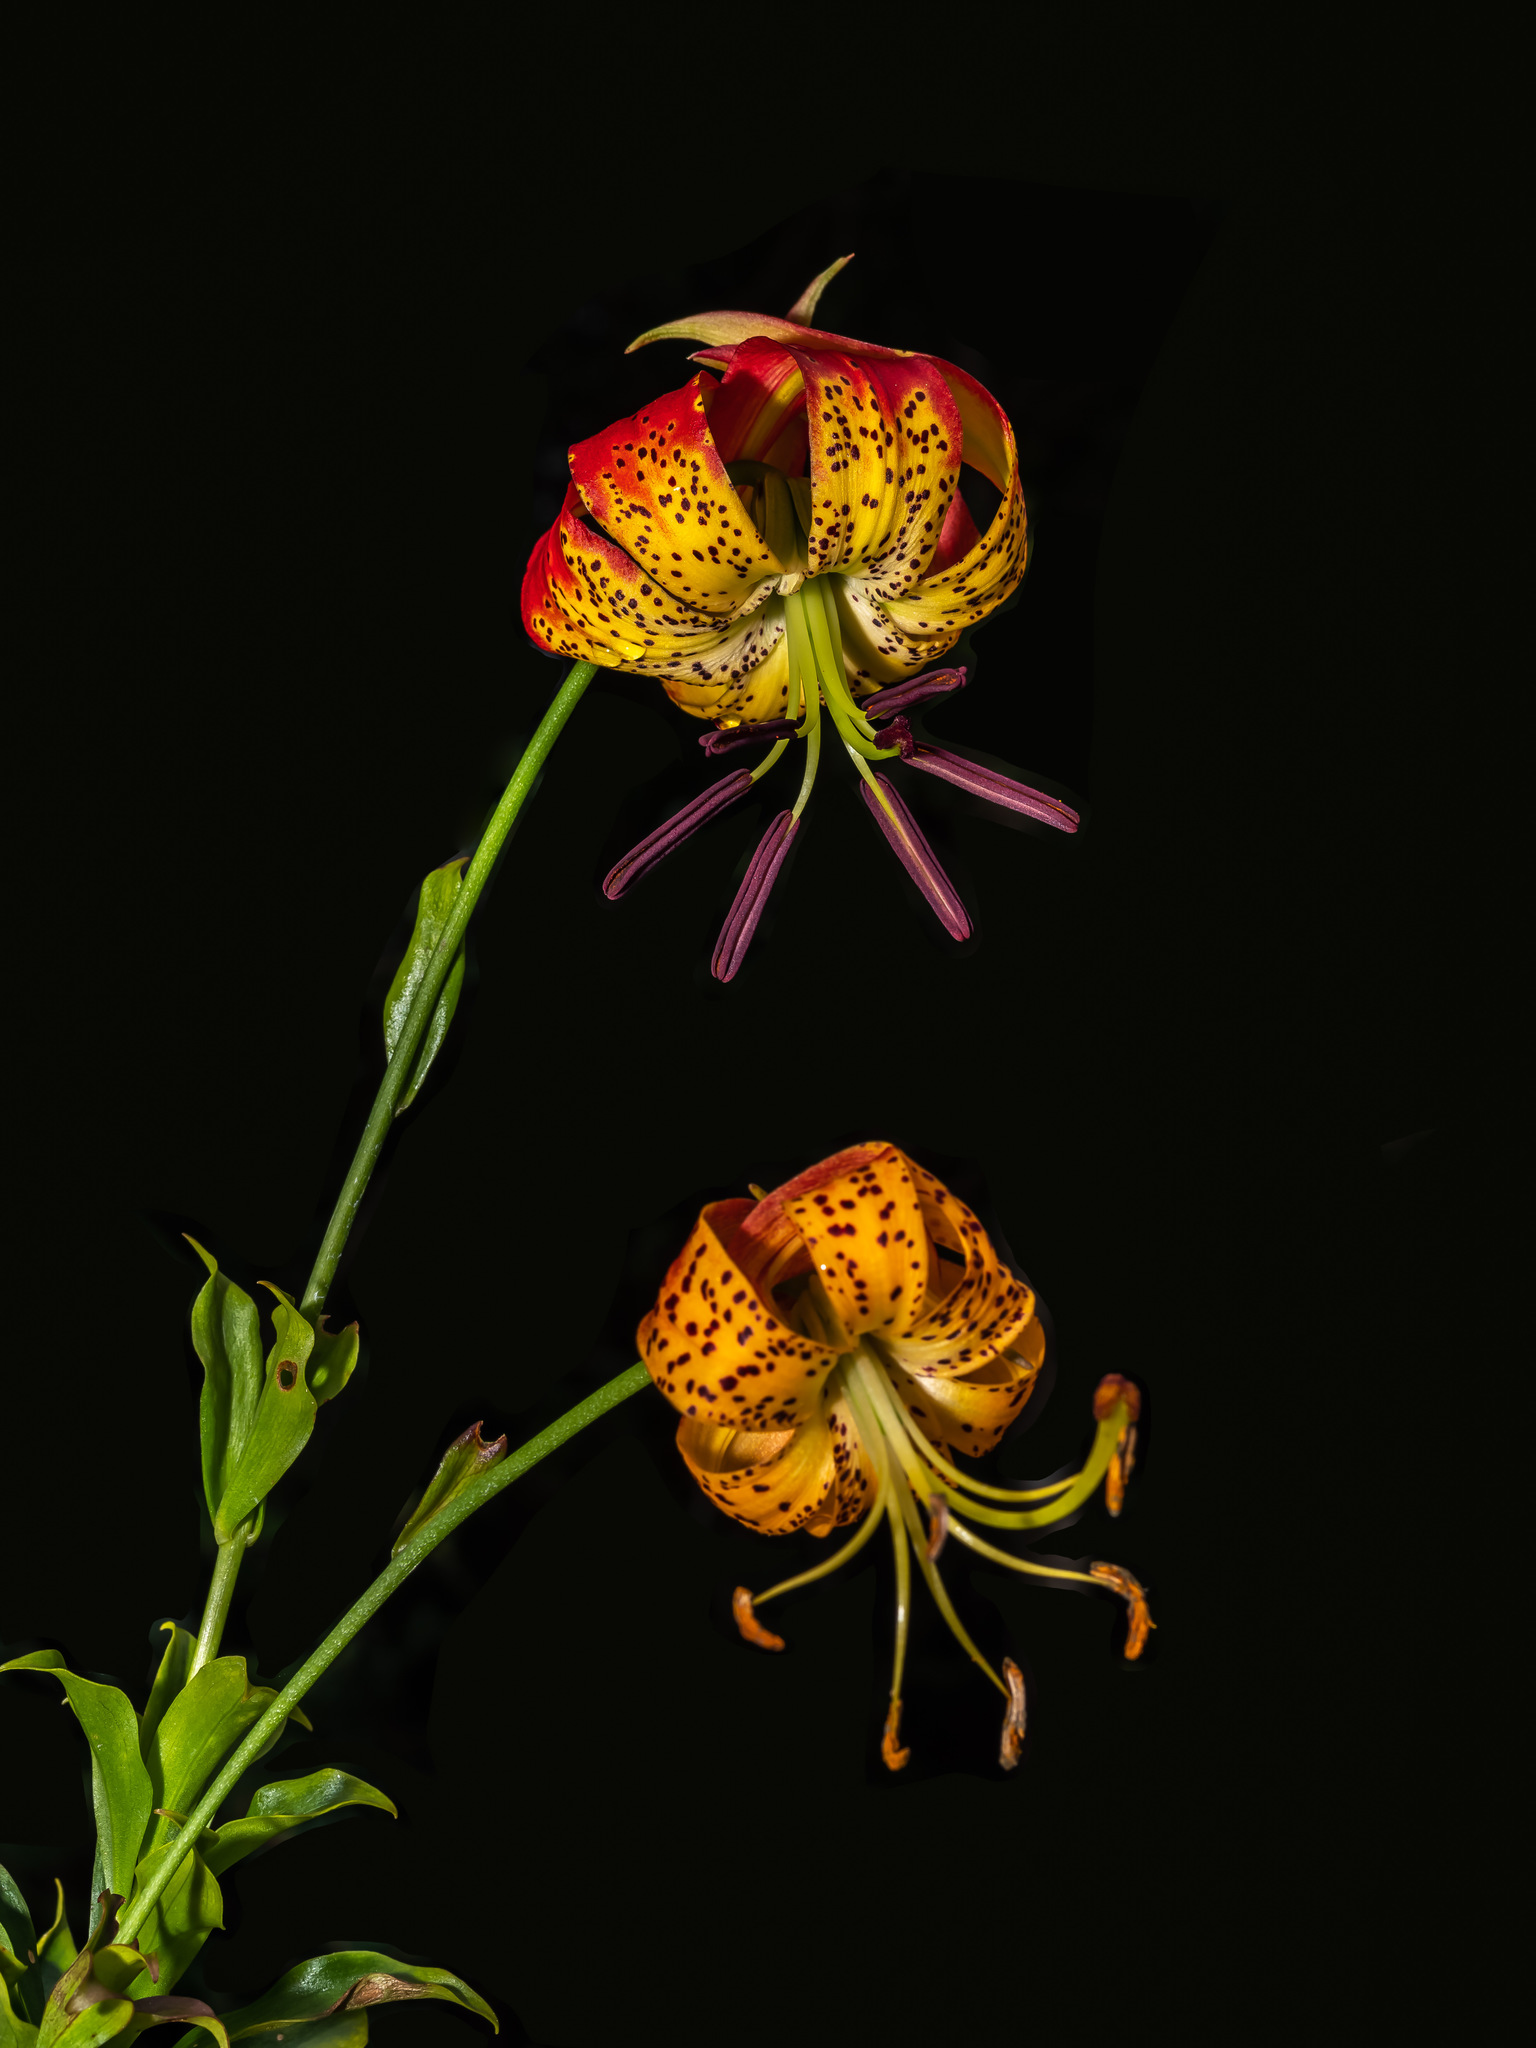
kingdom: Plantae
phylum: Tracheophyta
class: Liliopsida
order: Liliales
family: Liliaceae
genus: Lilium
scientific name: Lilium michauxii
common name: Carolina lily
